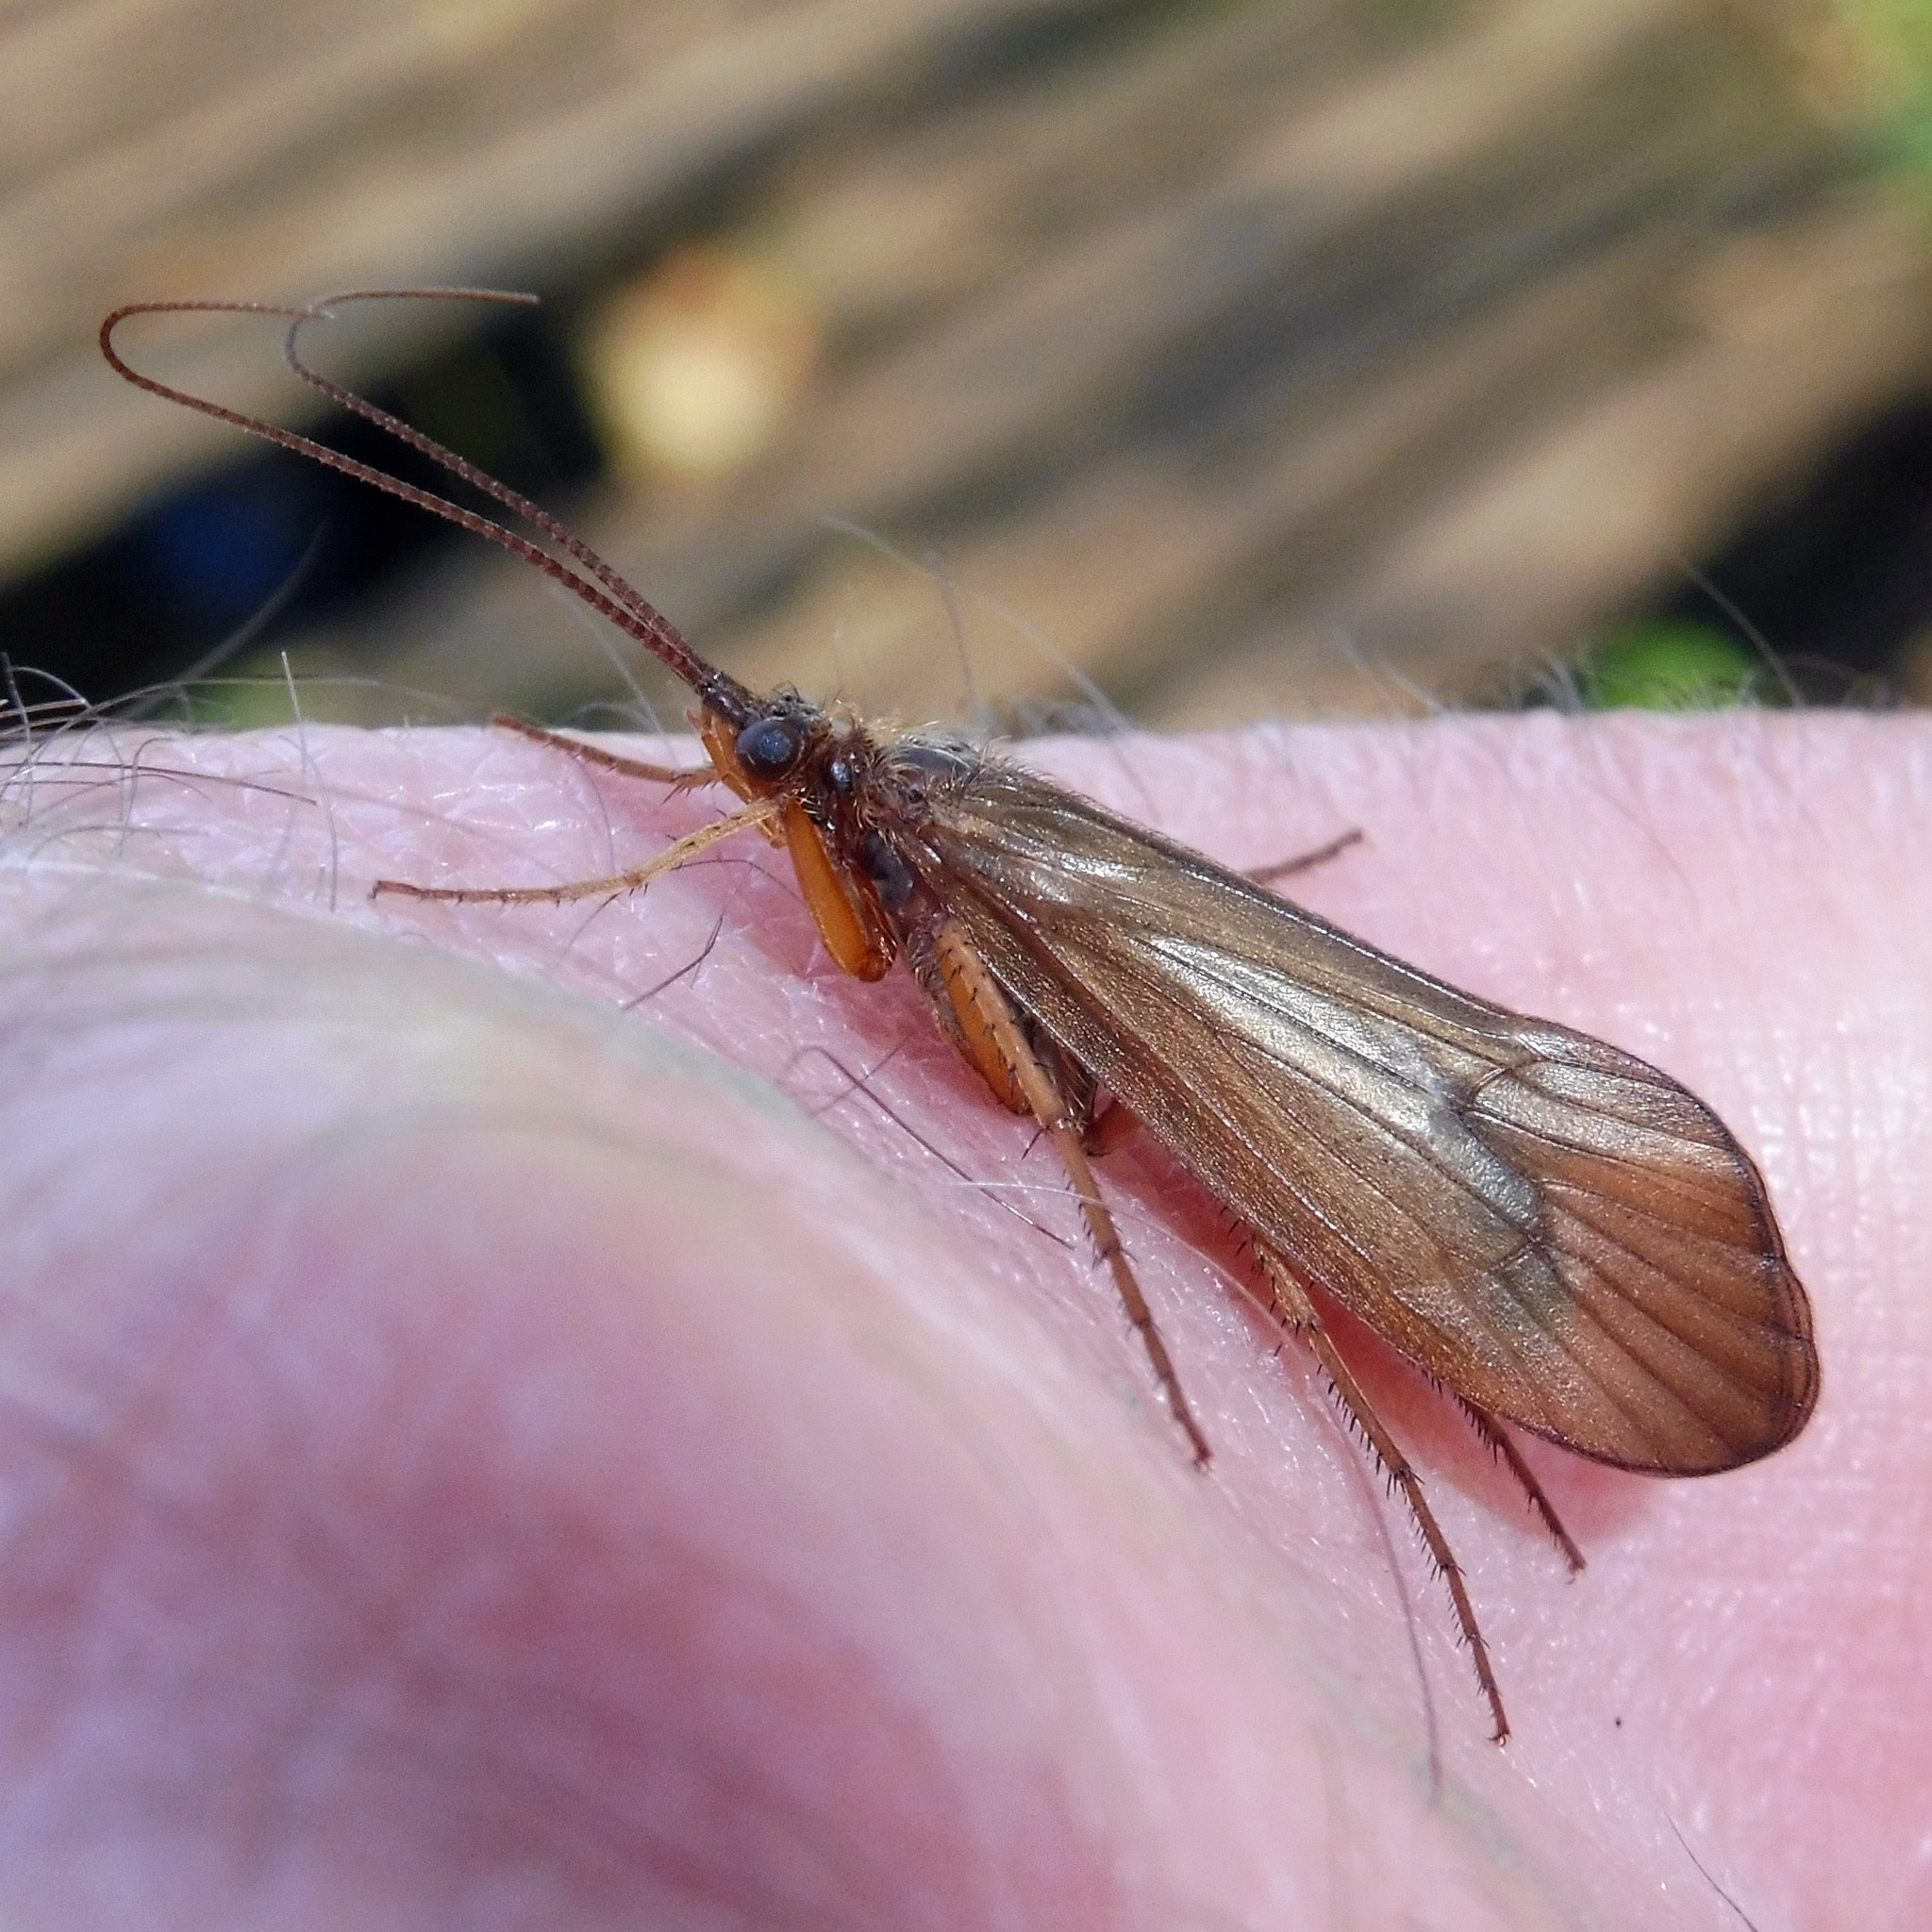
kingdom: Animalia
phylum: Arthropoda
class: Insecta
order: Trichoptera
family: Limnephilidae
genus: Anabolia
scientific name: Anabolia nervosa
